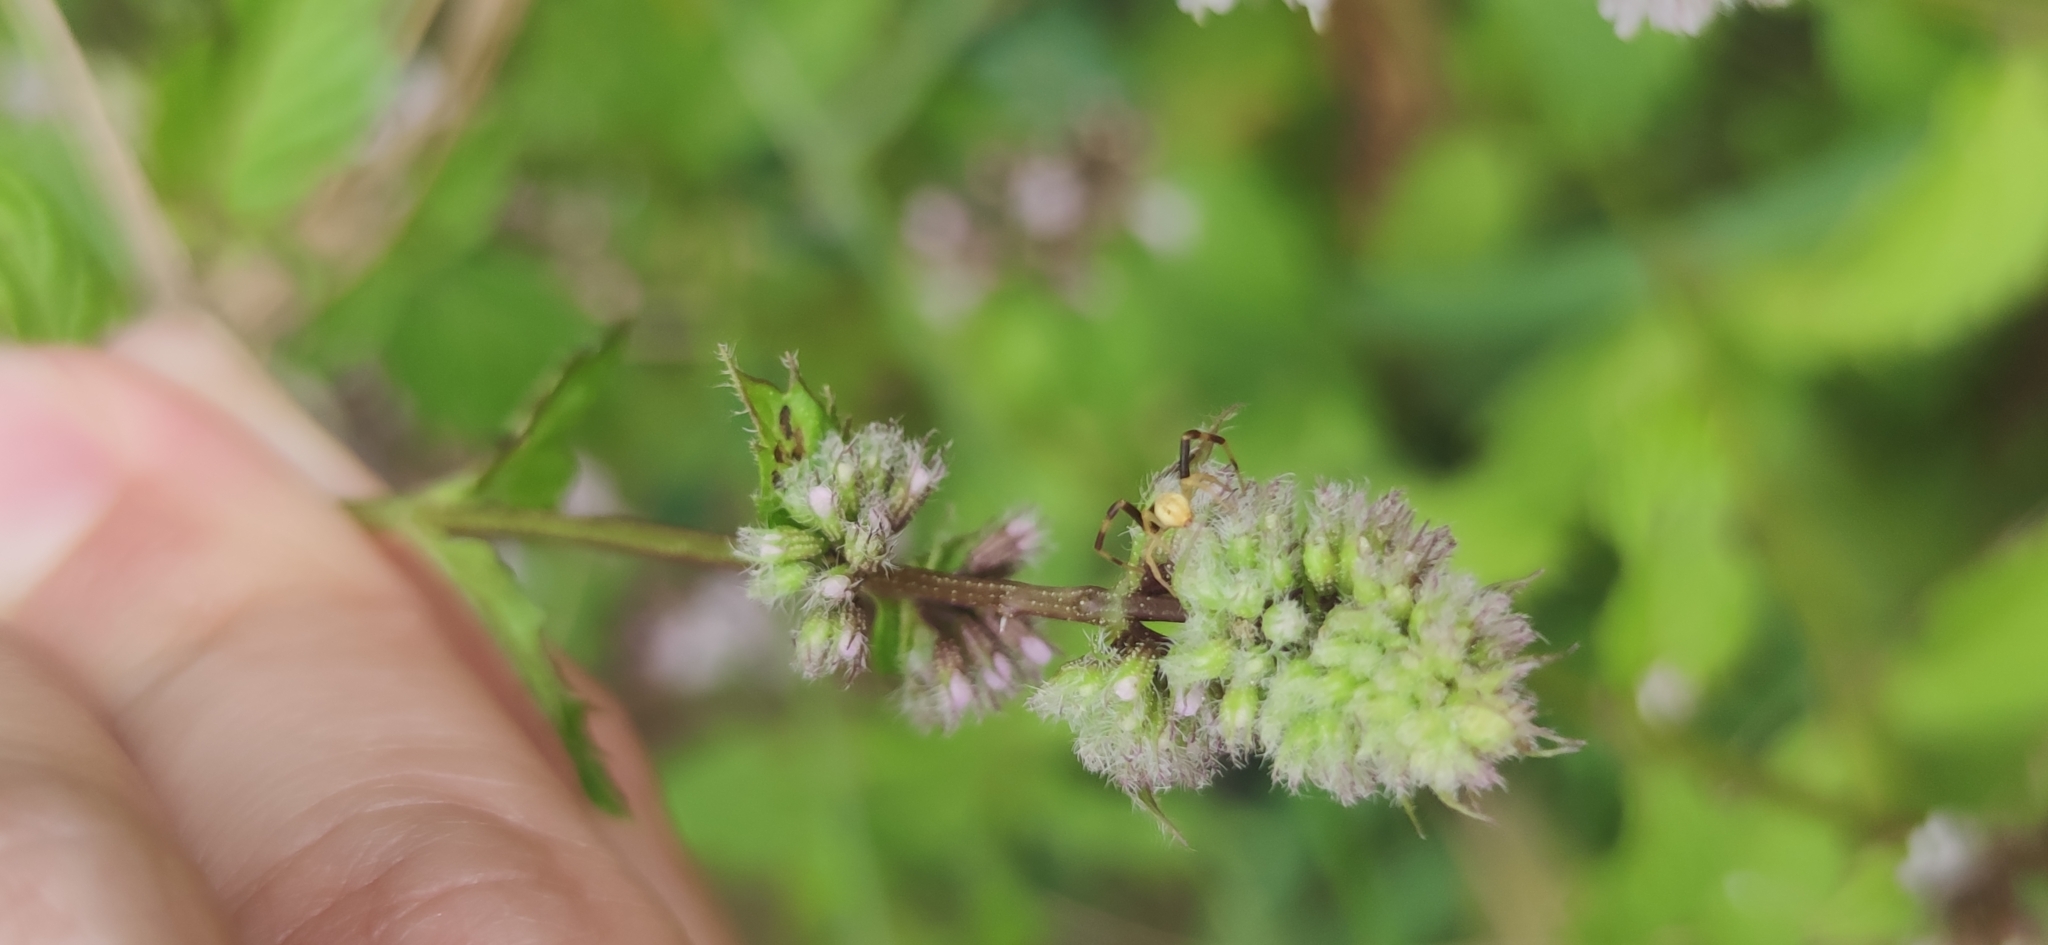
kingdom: Animalia
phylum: Arthropoda
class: Arachnida
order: Araneae
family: Thomisidae
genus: Misumena
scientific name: Misumena vatia
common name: Goldenrod crab spider
